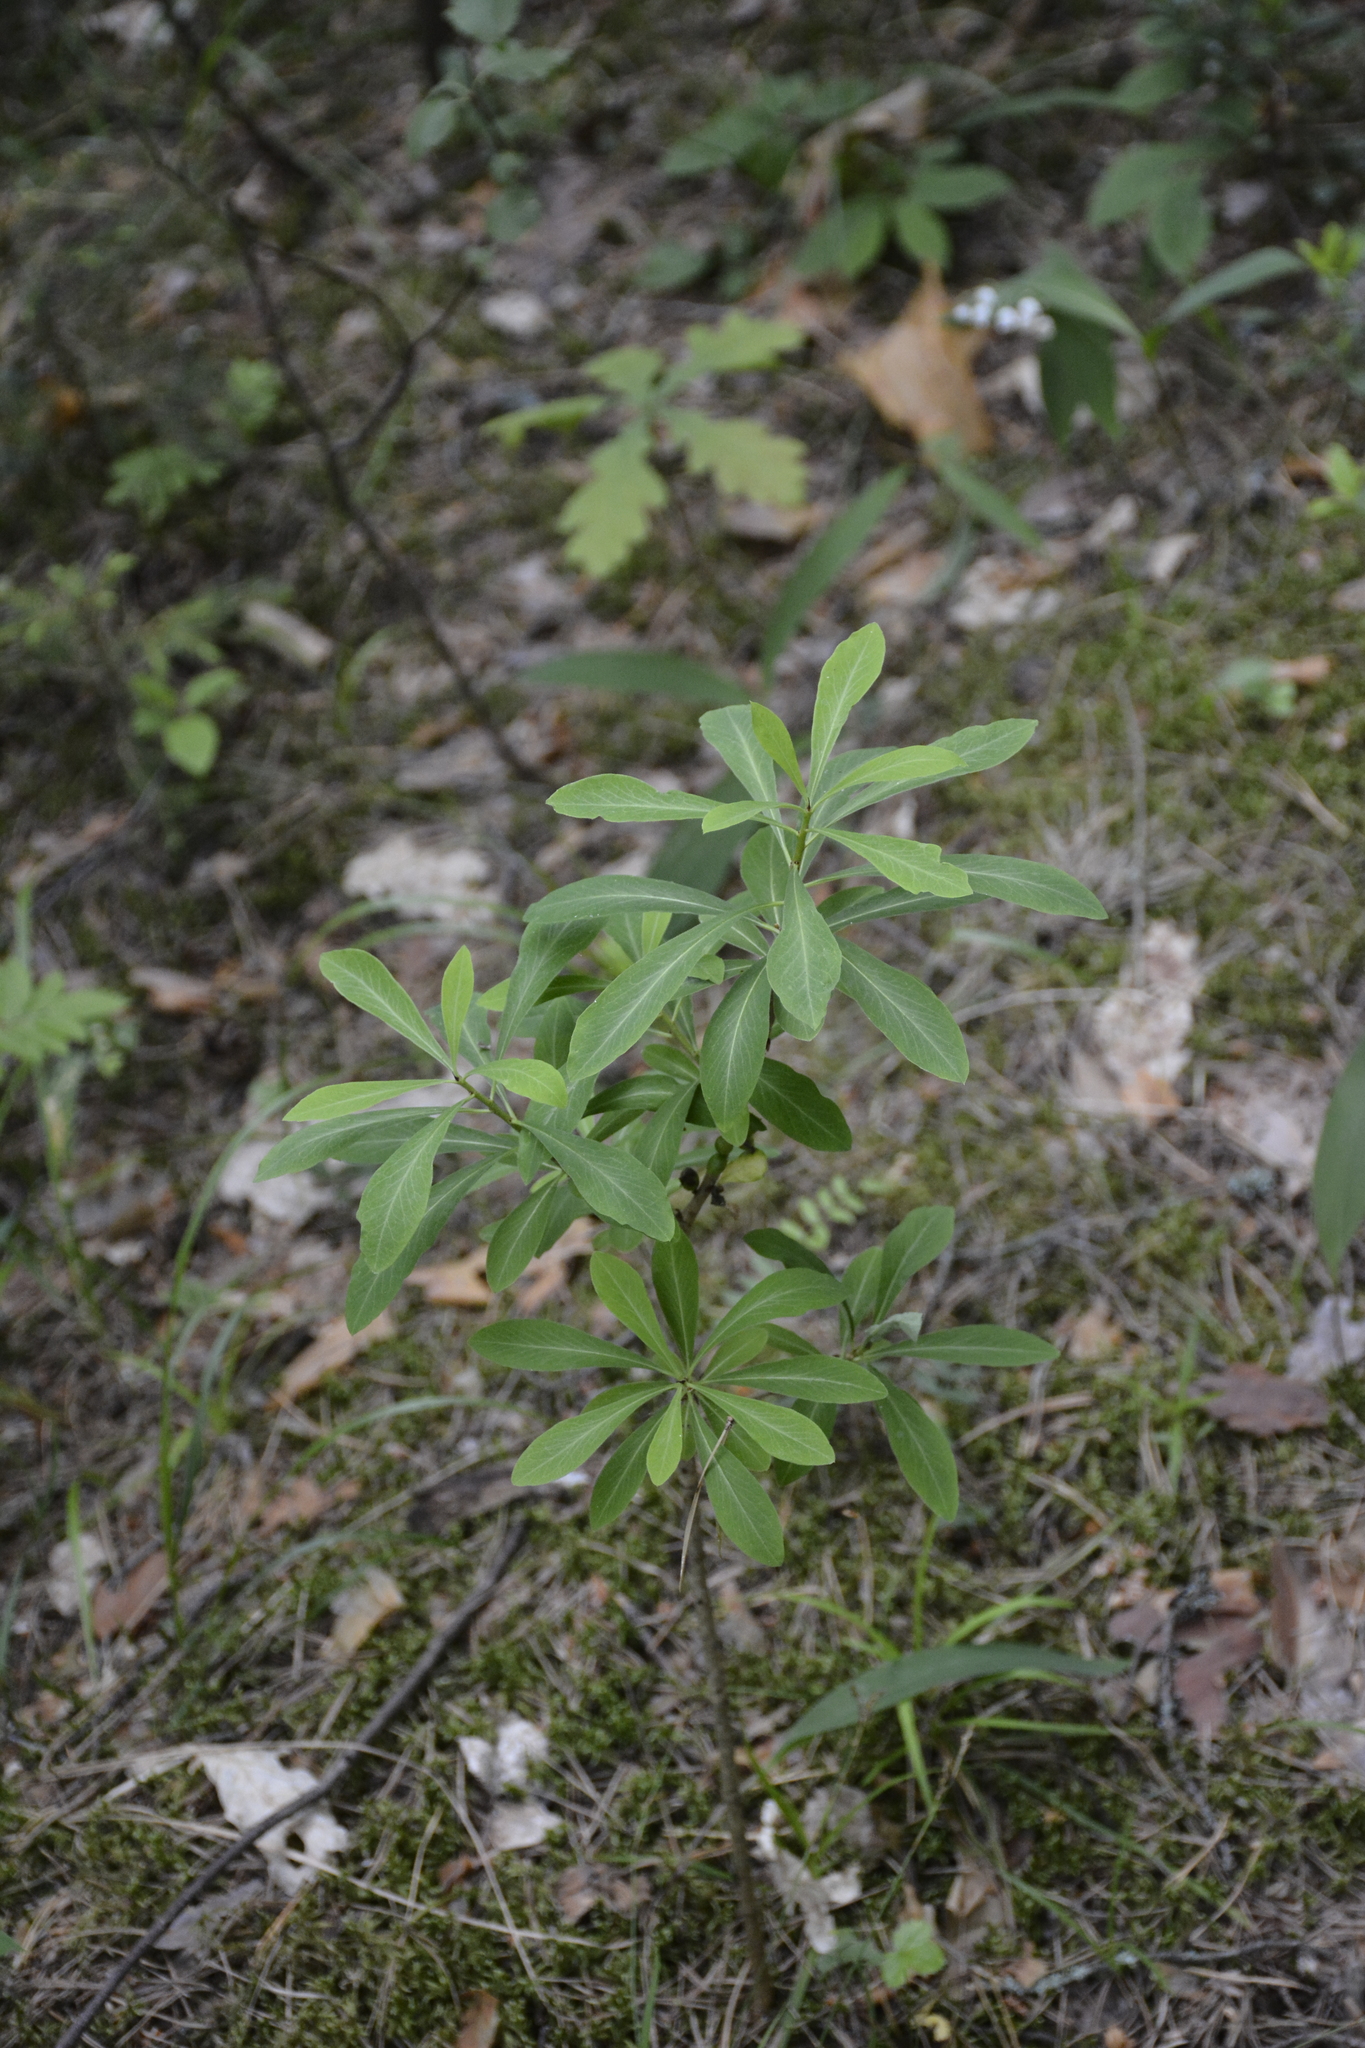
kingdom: Plantae
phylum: Tracheophyta
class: Magnoliopsida
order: Malvales
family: Thymelaeaceae
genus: Daphne
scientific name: Daphne mezereum
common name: Mezereon
